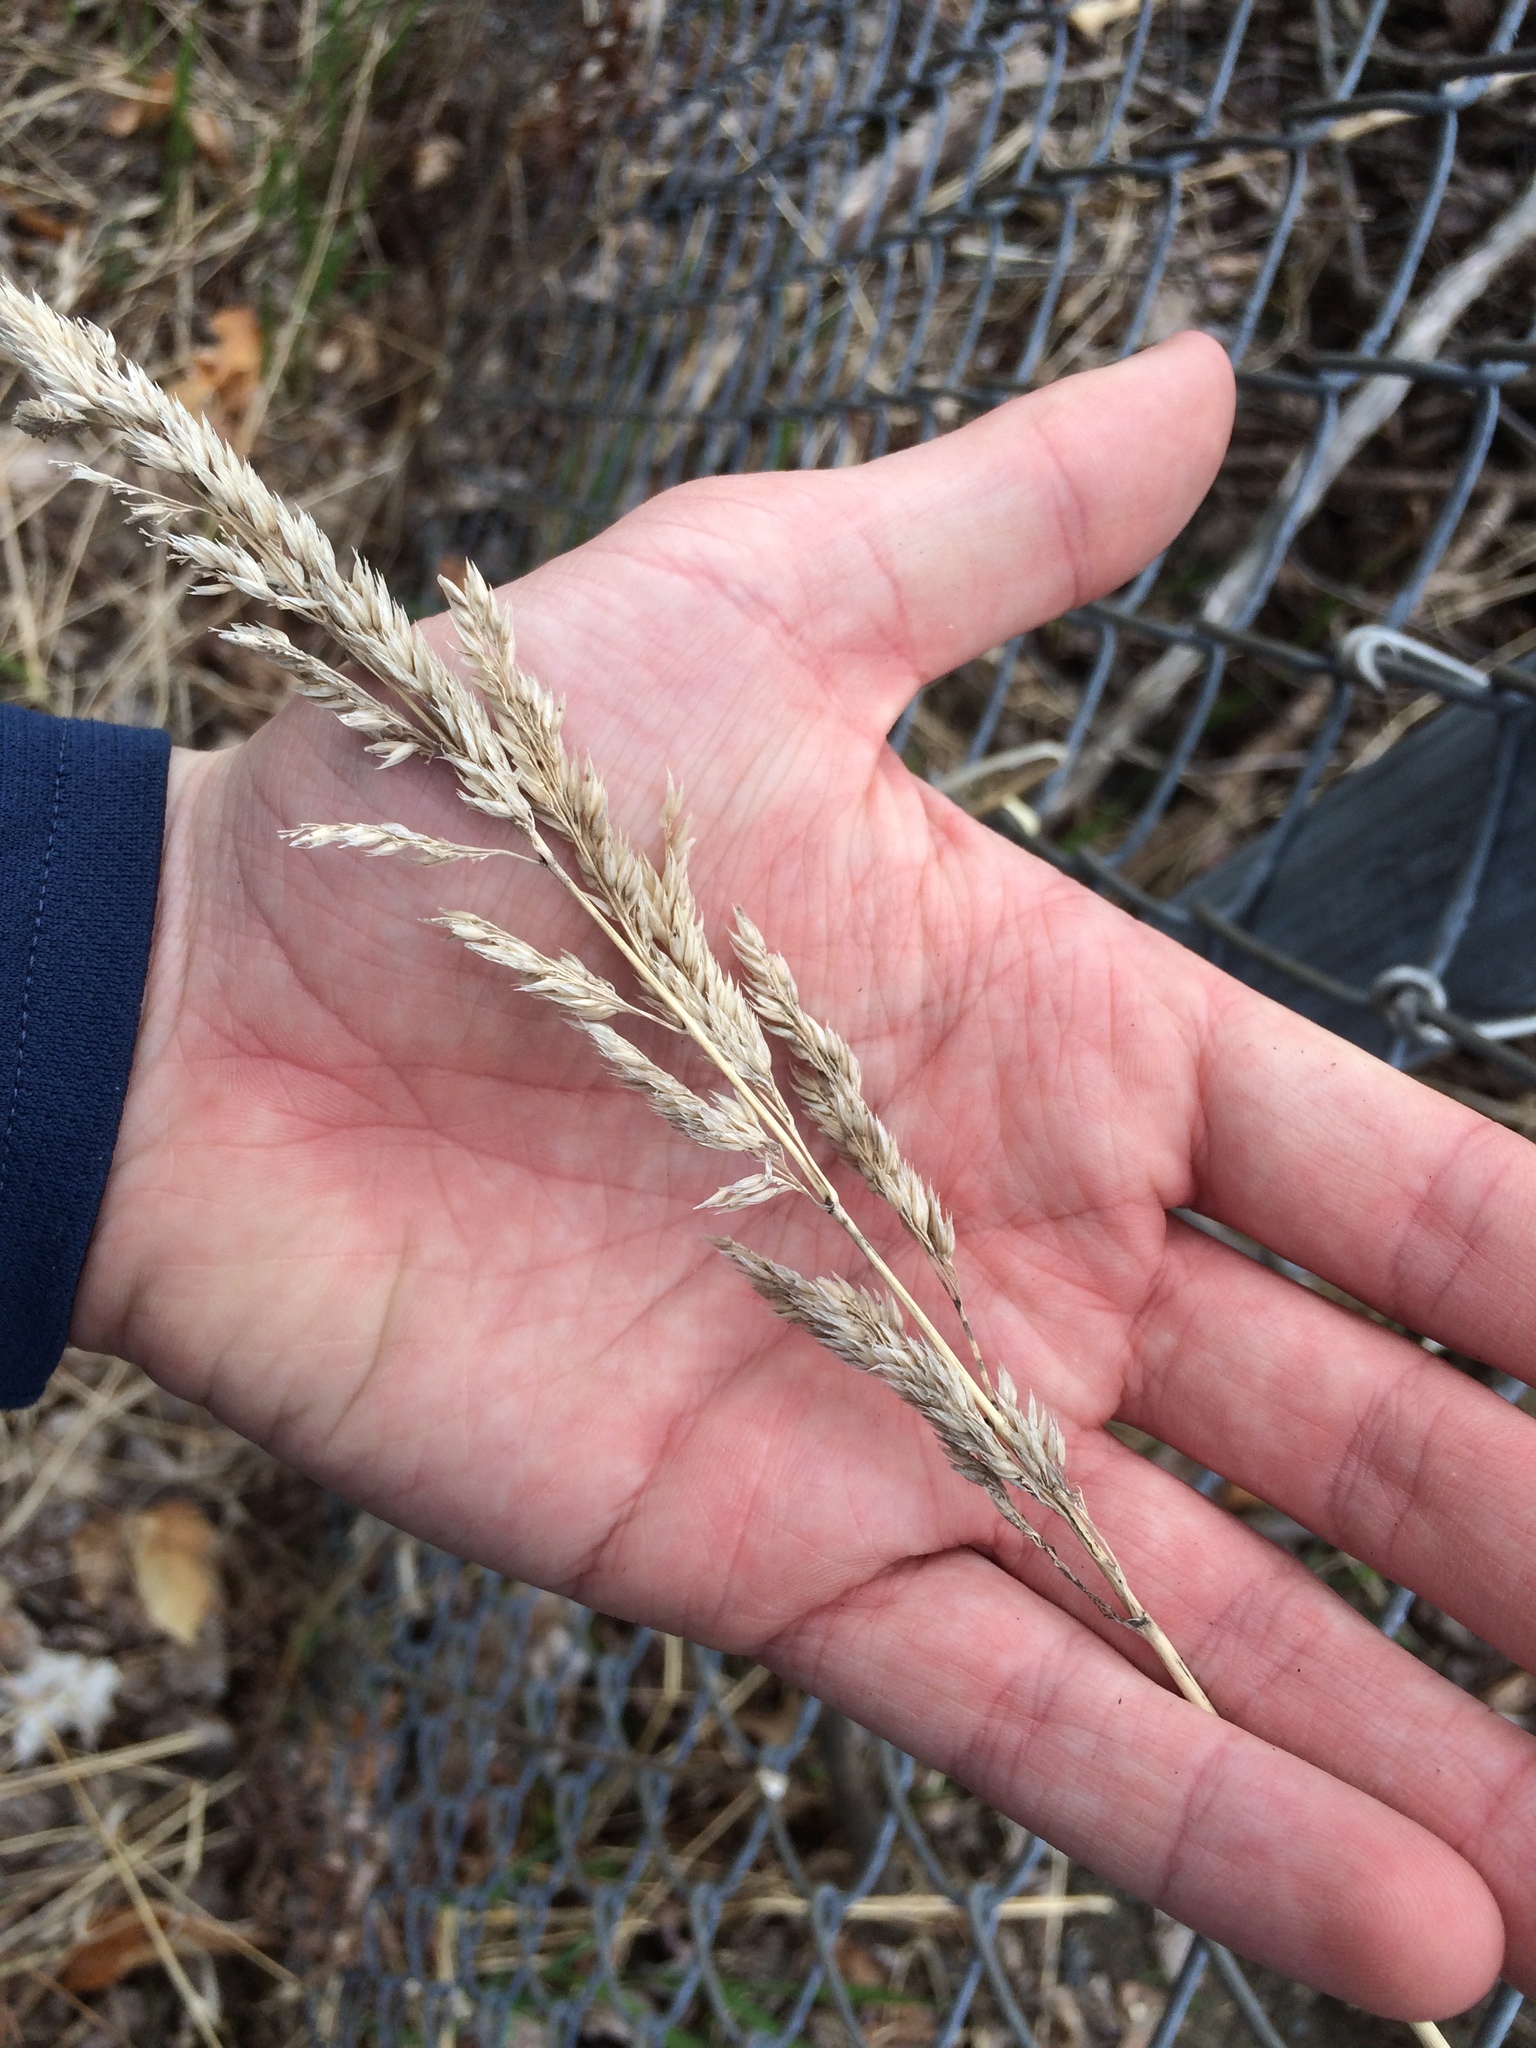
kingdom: Plantae
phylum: Tracheophyta
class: Liliopsida
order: Poales
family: Poaceae
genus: Phalaris
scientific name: Phalaris arundinacea
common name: Reed canary-grass
